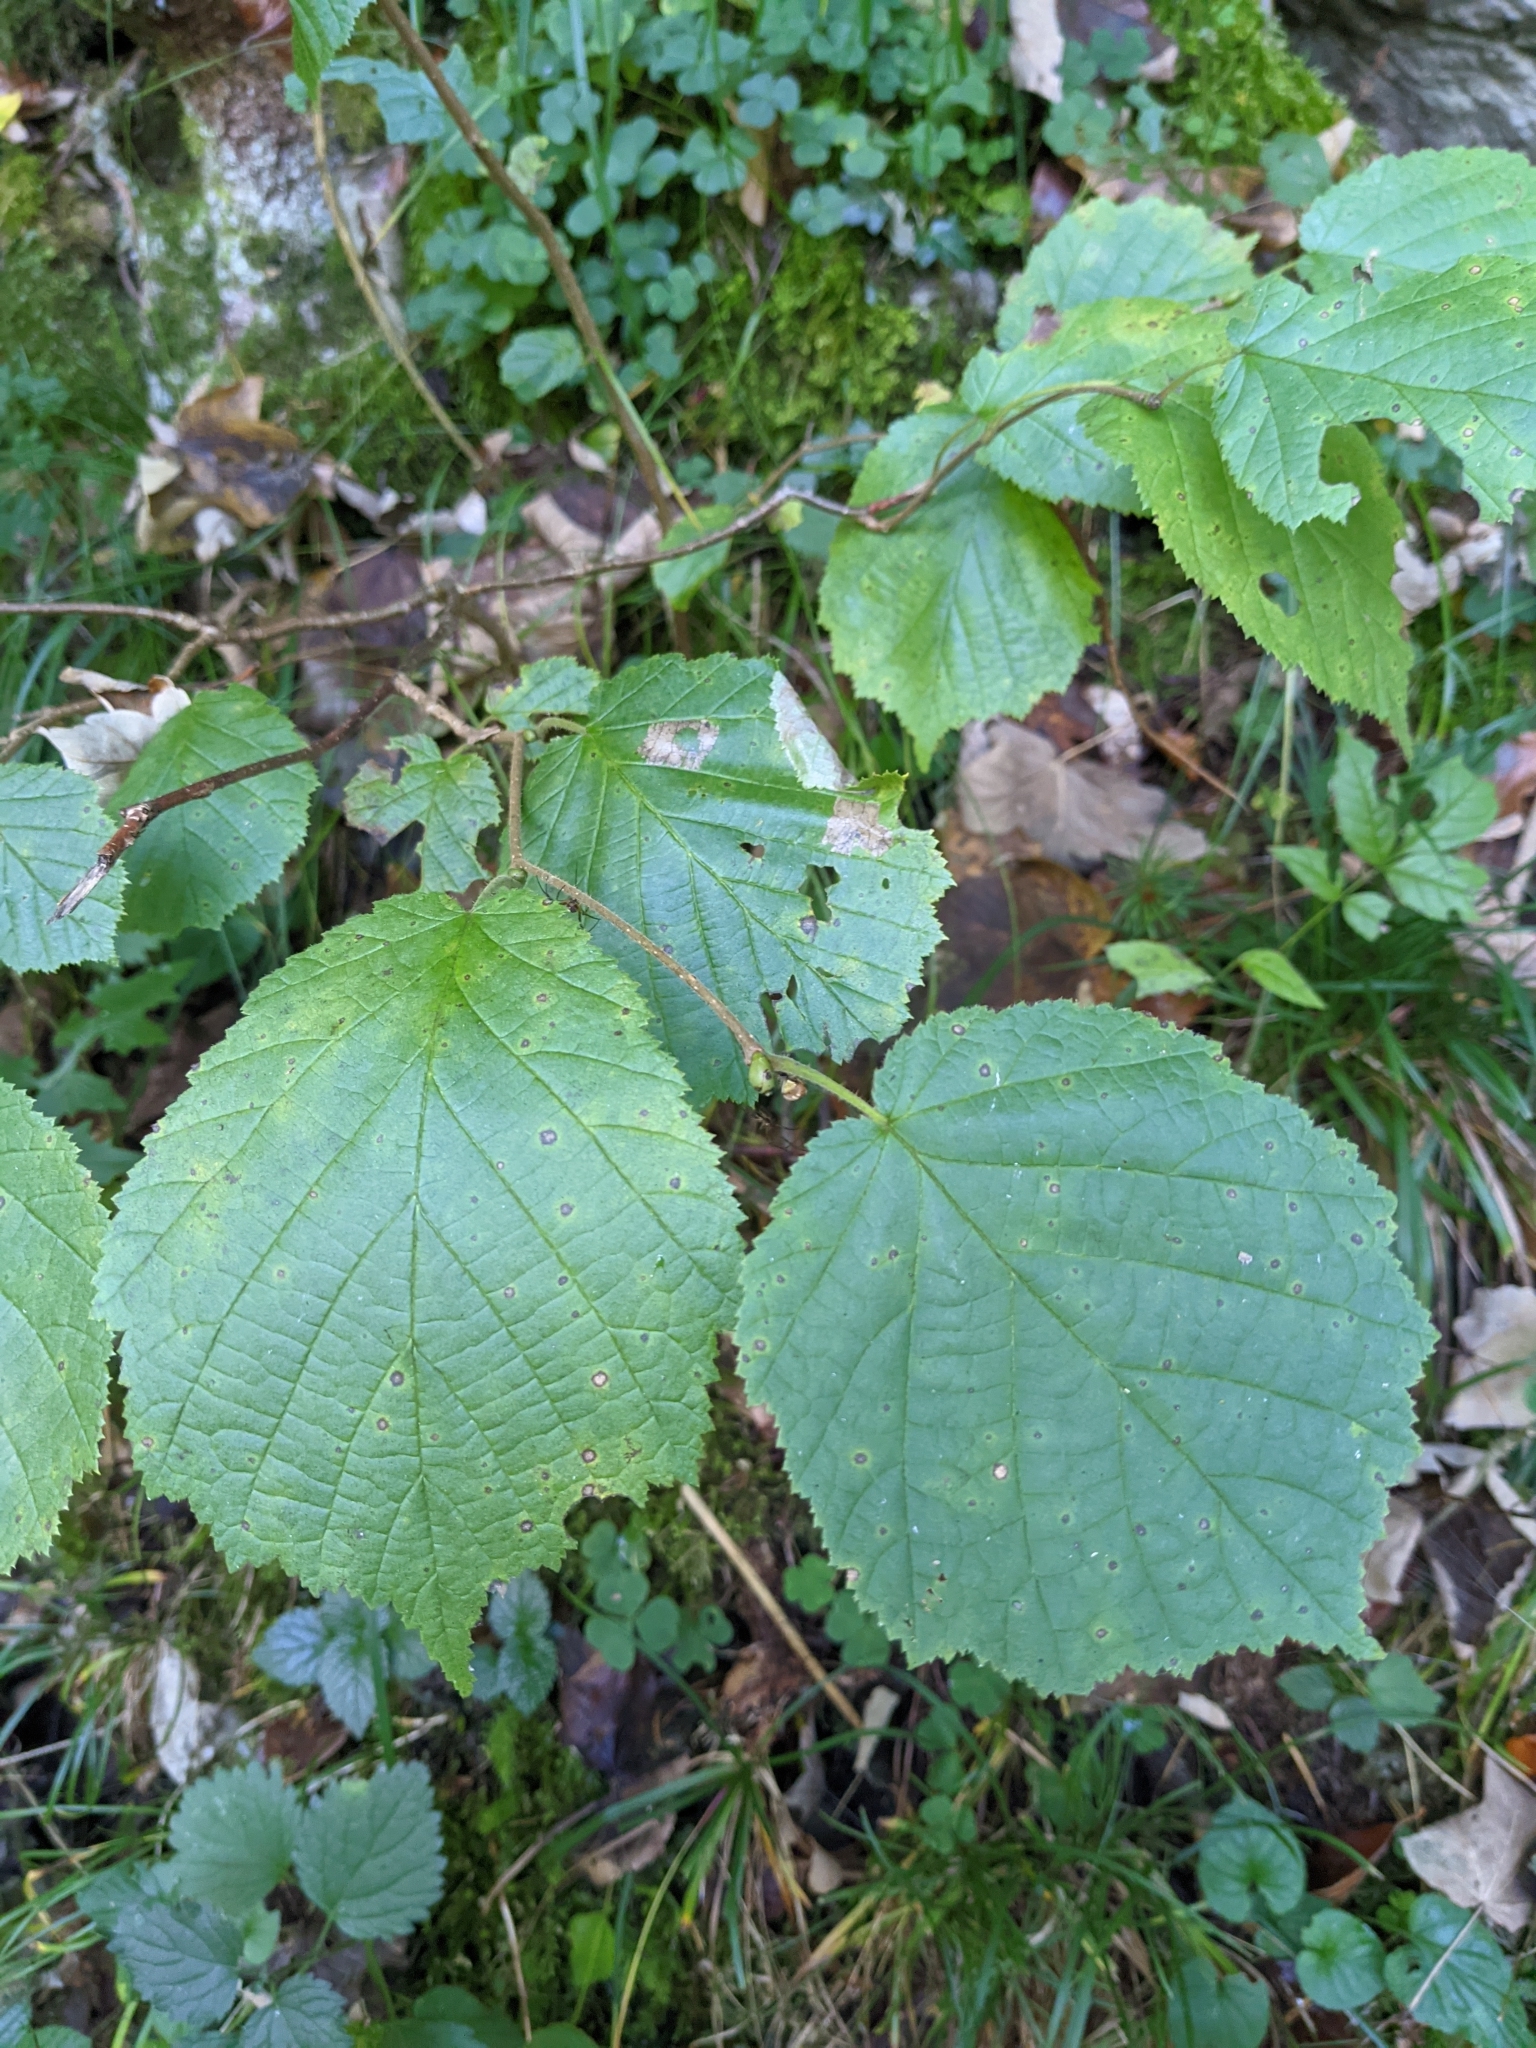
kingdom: Plantae
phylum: Tracheophyta
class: Magnoliopsida
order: Fagales
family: Betulaceae
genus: Corylus
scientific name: Corylus avellana
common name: European hazel
